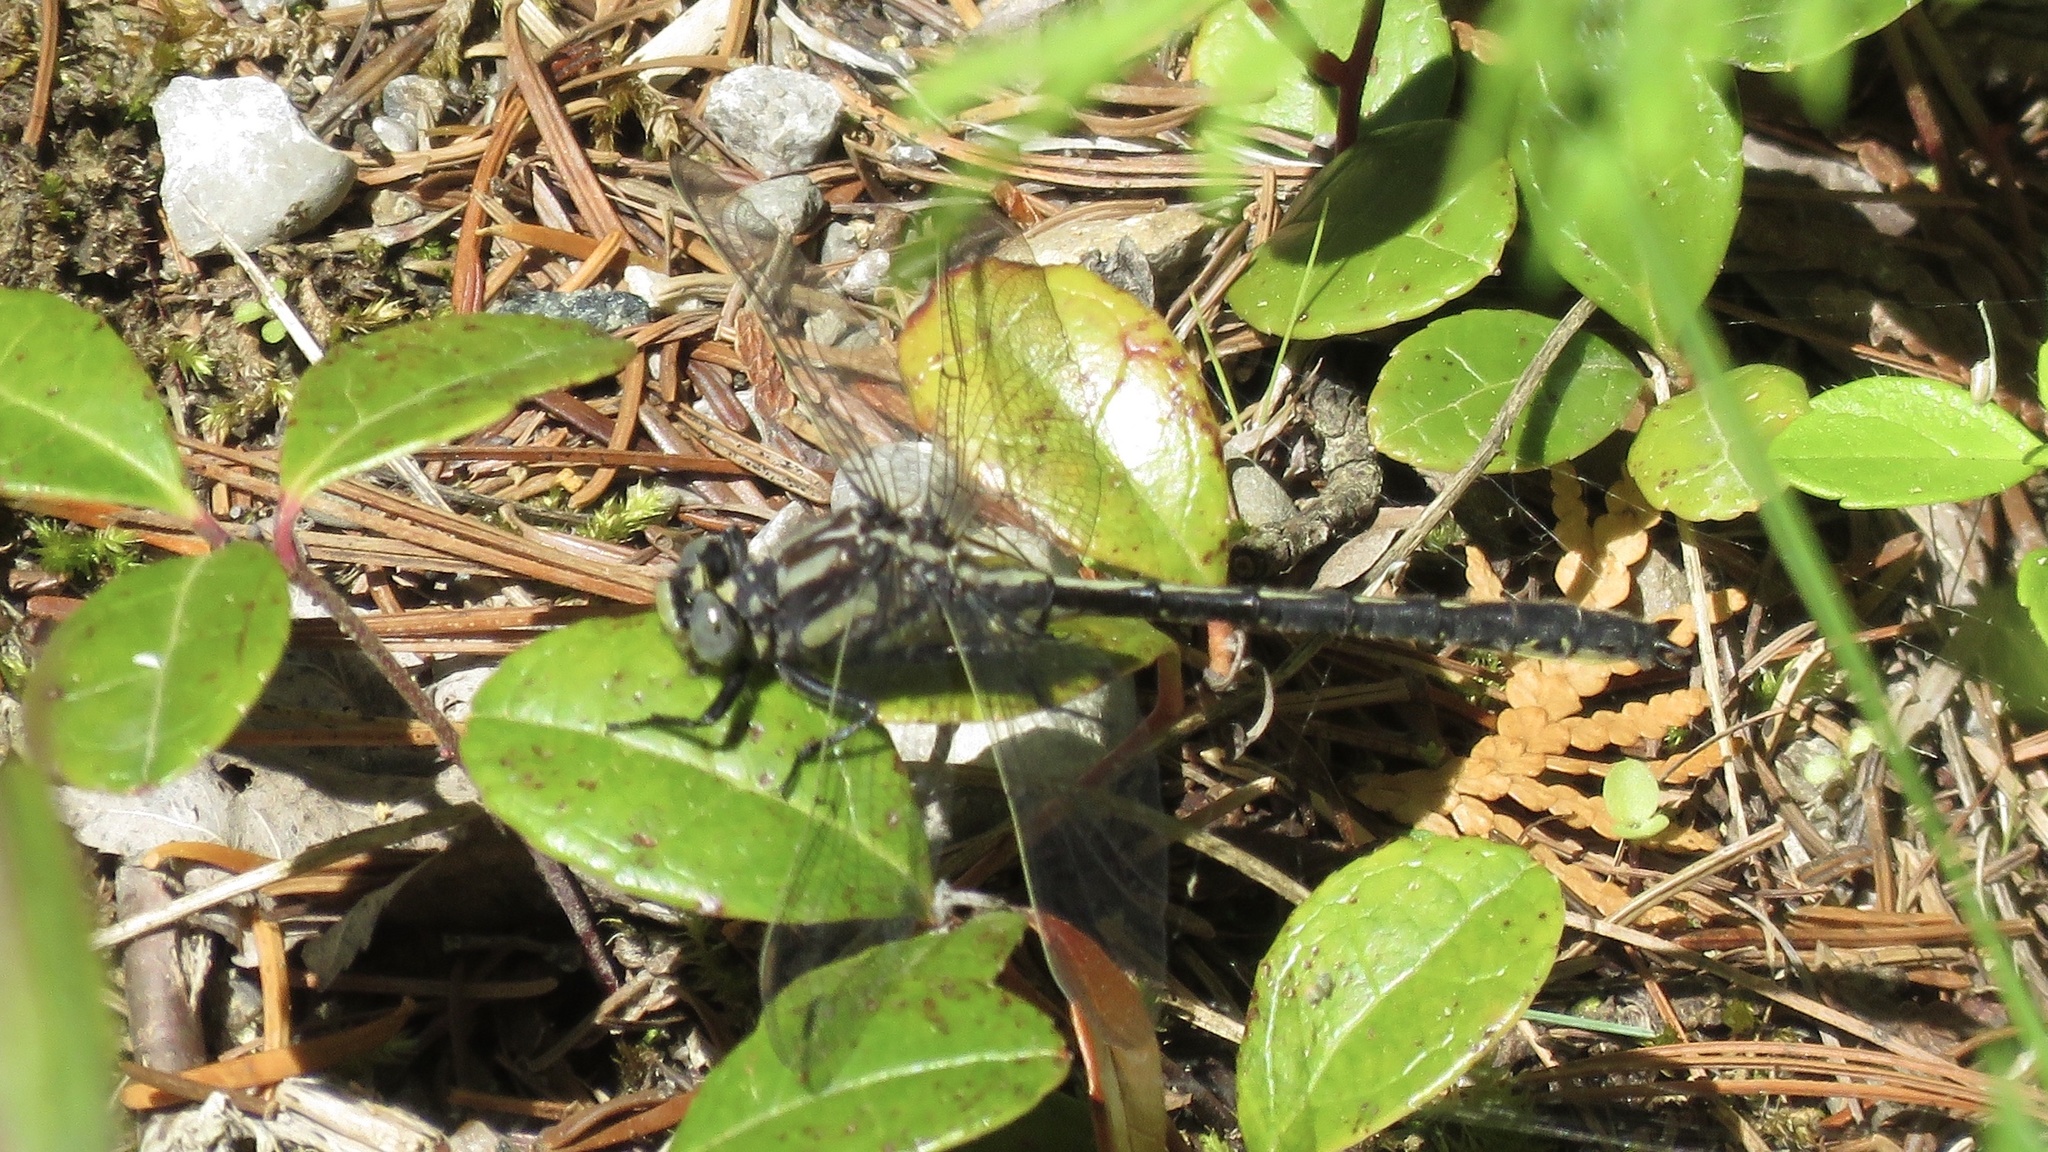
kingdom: Animalia
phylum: Arthropoda
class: Insecta
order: Odonata
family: Gomphidae
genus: Phanogomphus
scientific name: Phanogomphus descriptus
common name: Harpoon clubtail
